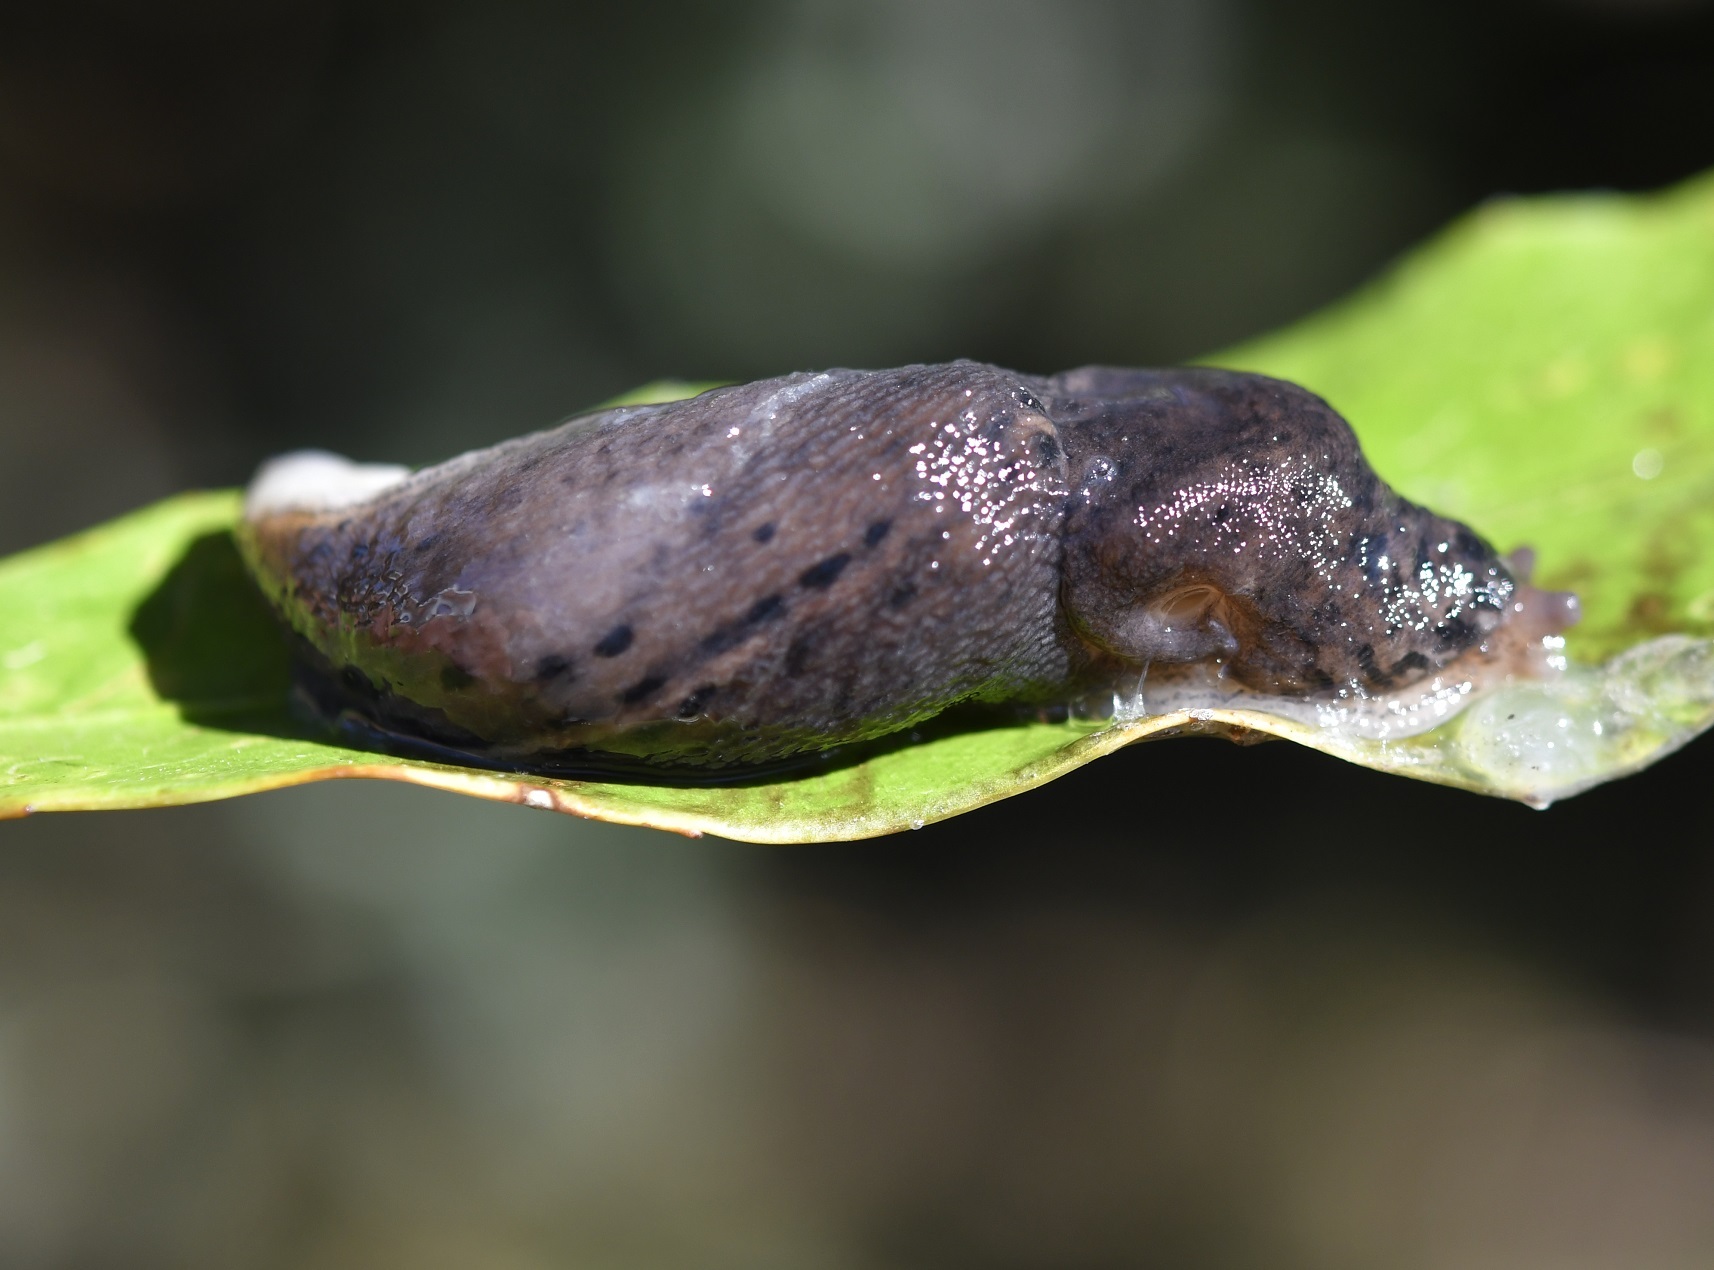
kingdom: Animalia
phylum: Mollusca
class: Gastropoda
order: Stylommatophora
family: Limacidae
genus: Limax
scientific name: Limax maximus
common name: Great grey slug
